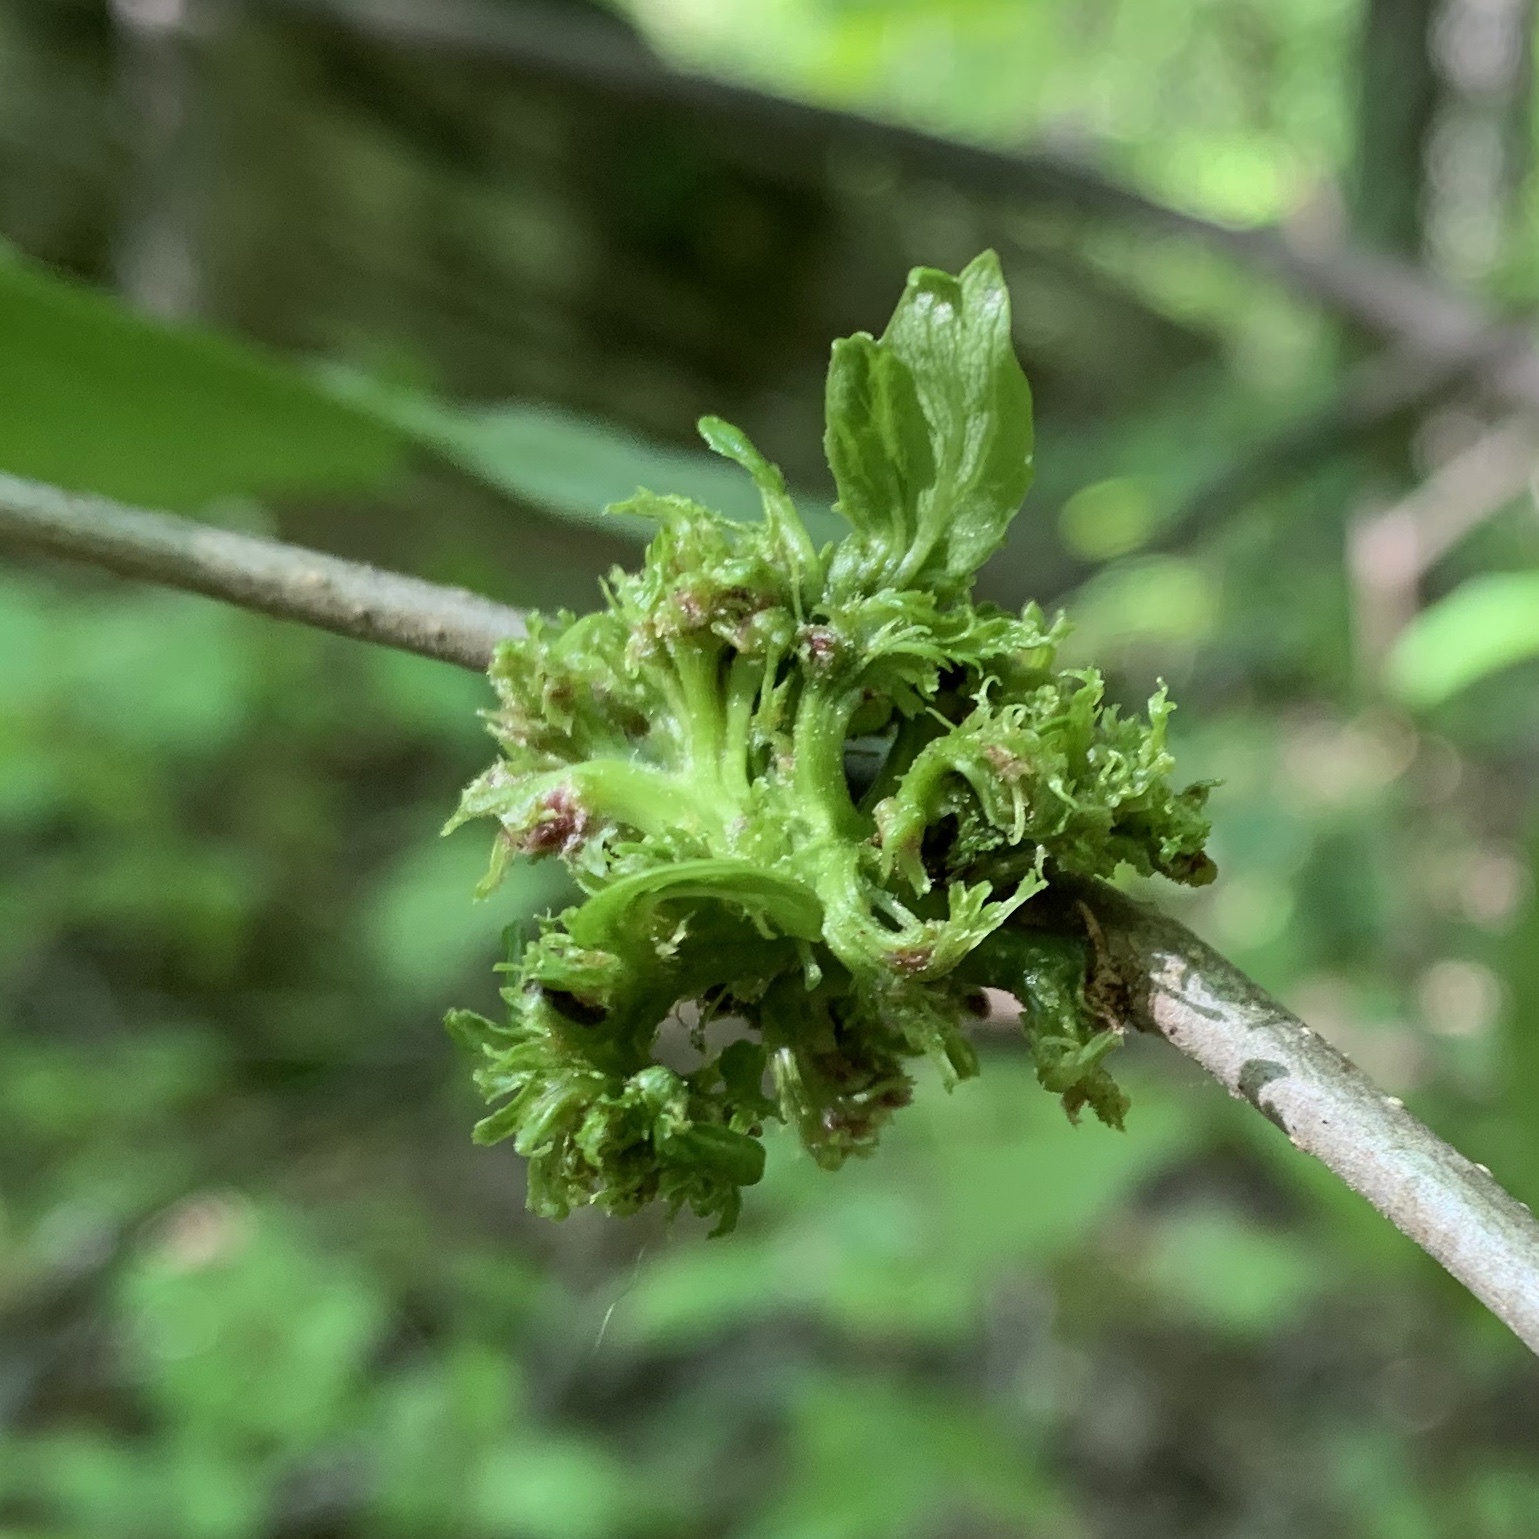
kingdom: Animalia
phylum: Arthropoda
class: Arachnida
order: Trombidiformes
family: Eriophyidae
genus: Aceria
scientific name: Aceria fraxiniflora
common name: Ash flower gall mite
